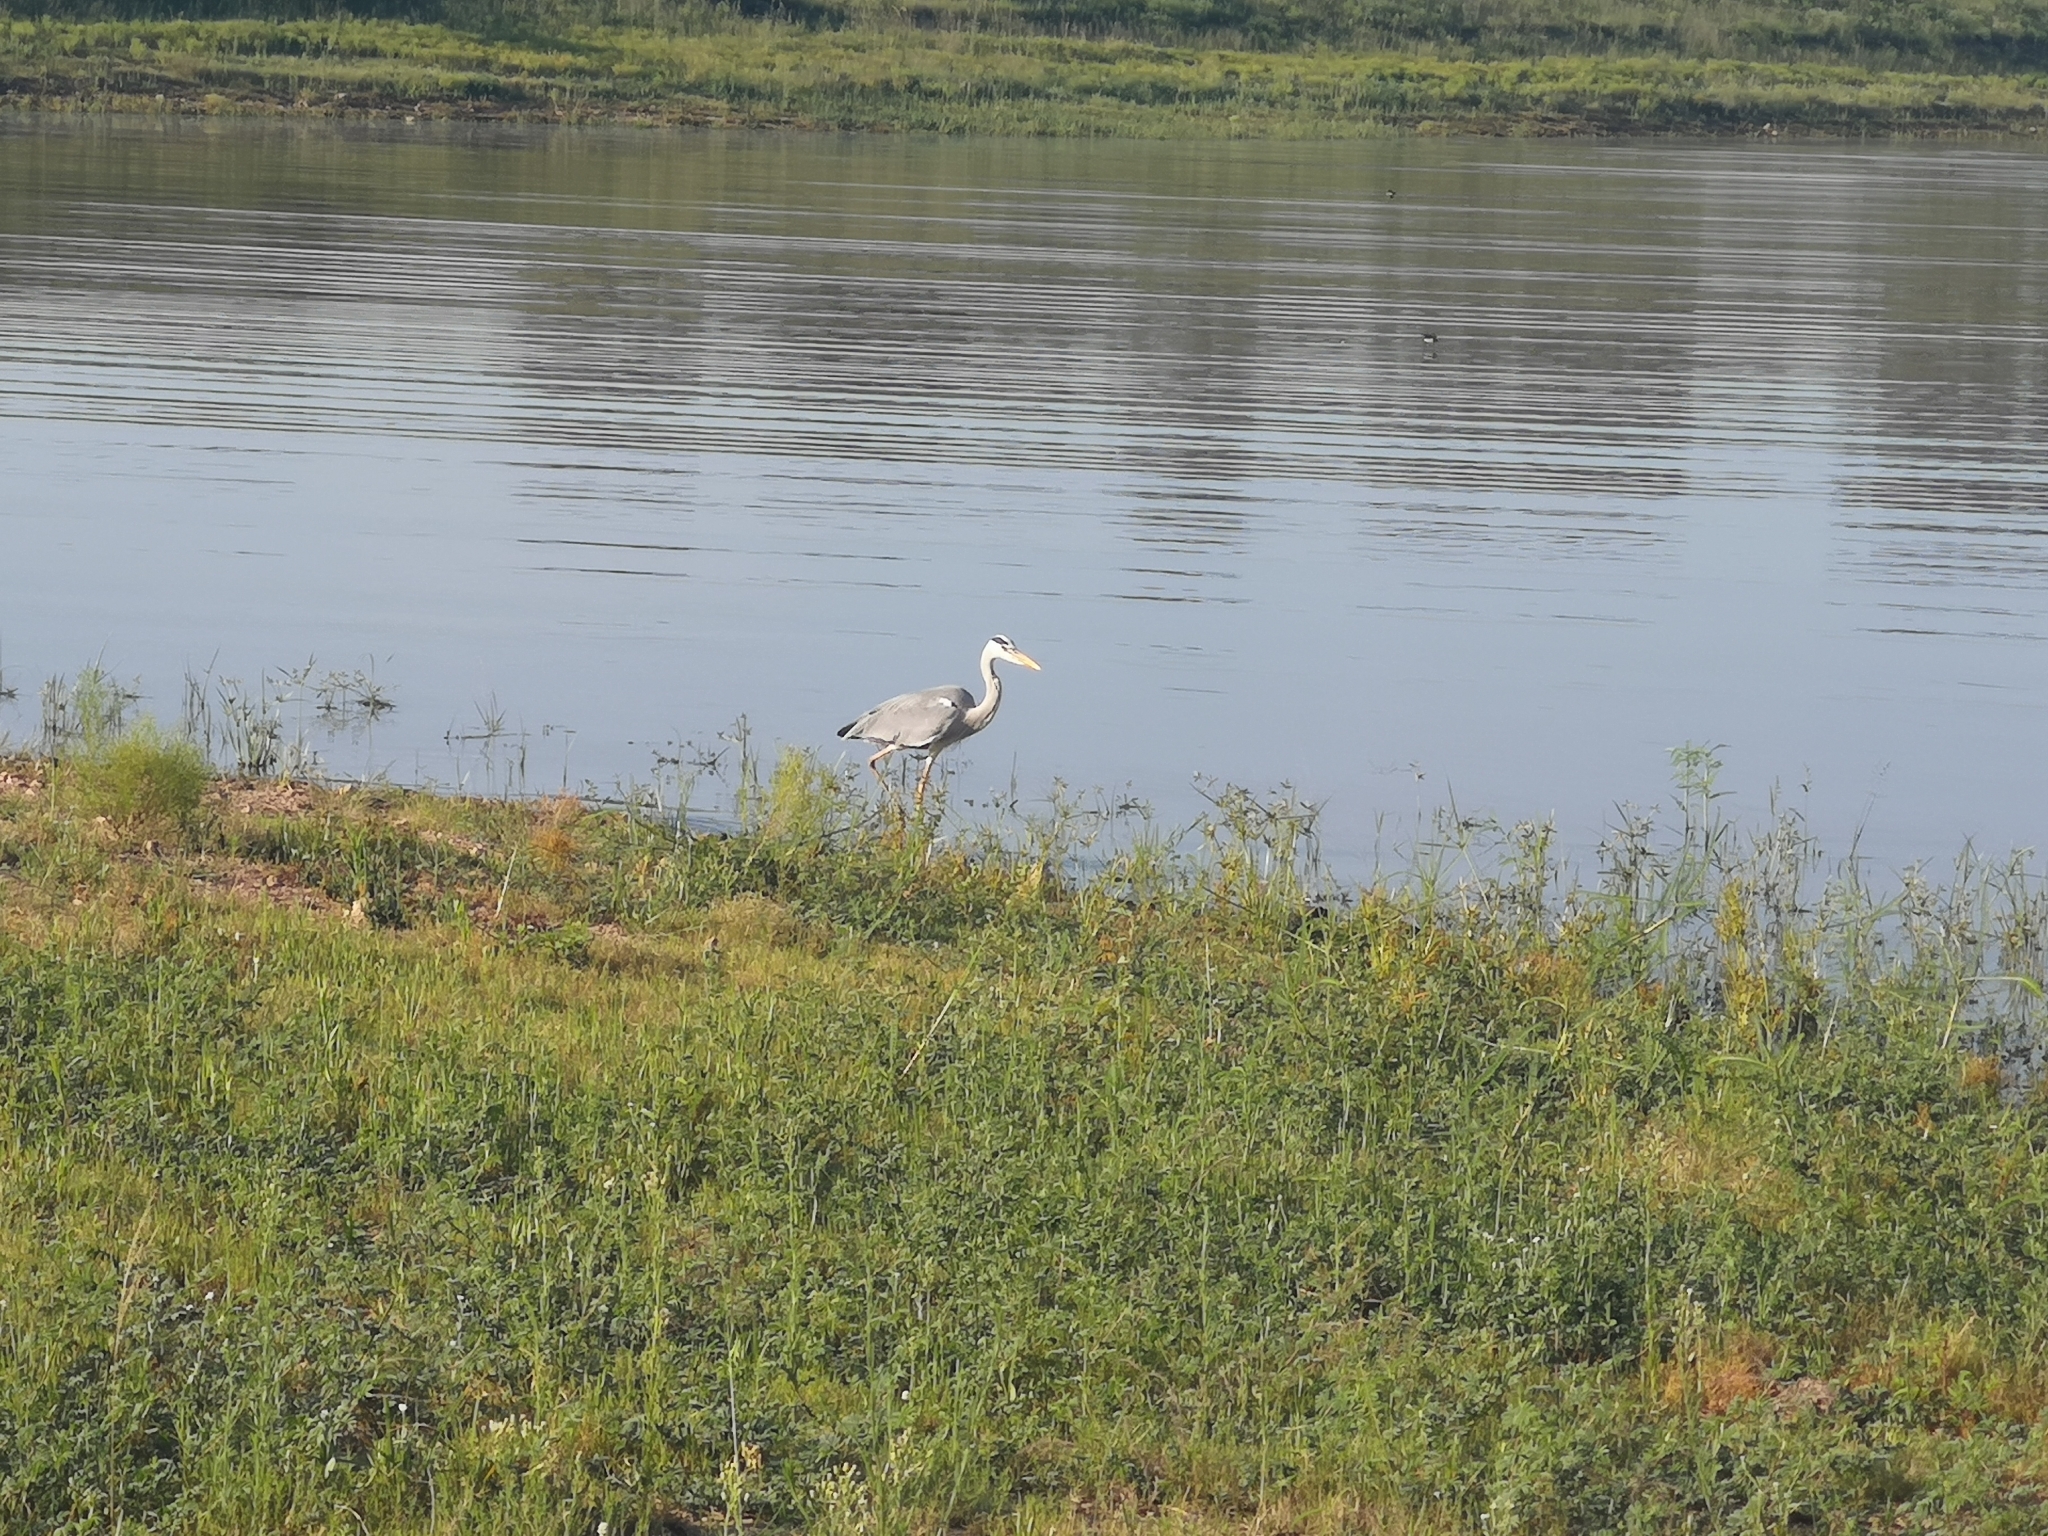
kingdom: Animalia
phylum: Chordata
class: Aves
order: Pelecaniformes
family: Ardeidae
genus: Ardea
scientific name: Ardea cinerea
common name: Grey heron
